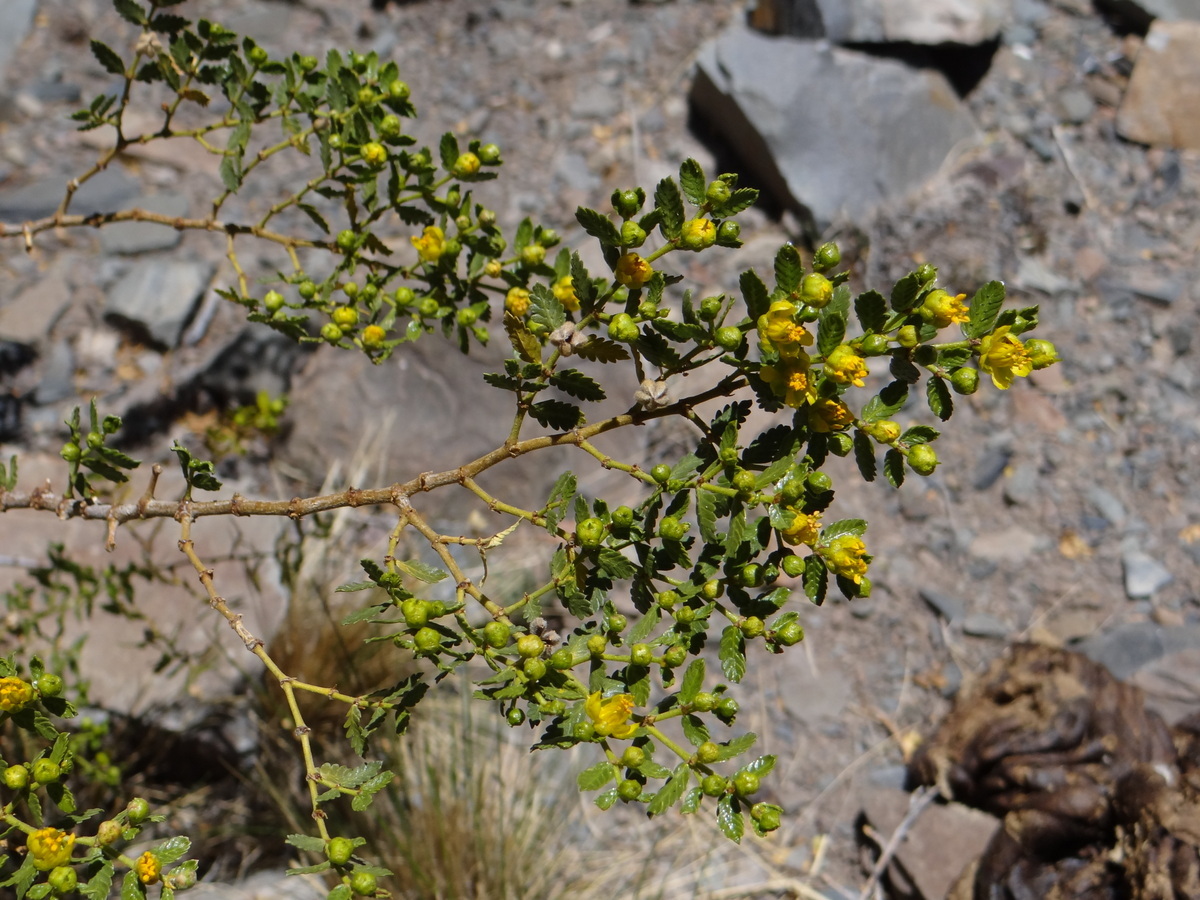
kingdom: Plantae
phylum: Tracheophyta
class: Magnoliopsida
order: Zygophyllales
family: Zygophyllaceae
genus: Larrea
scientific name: Larrea nitida
